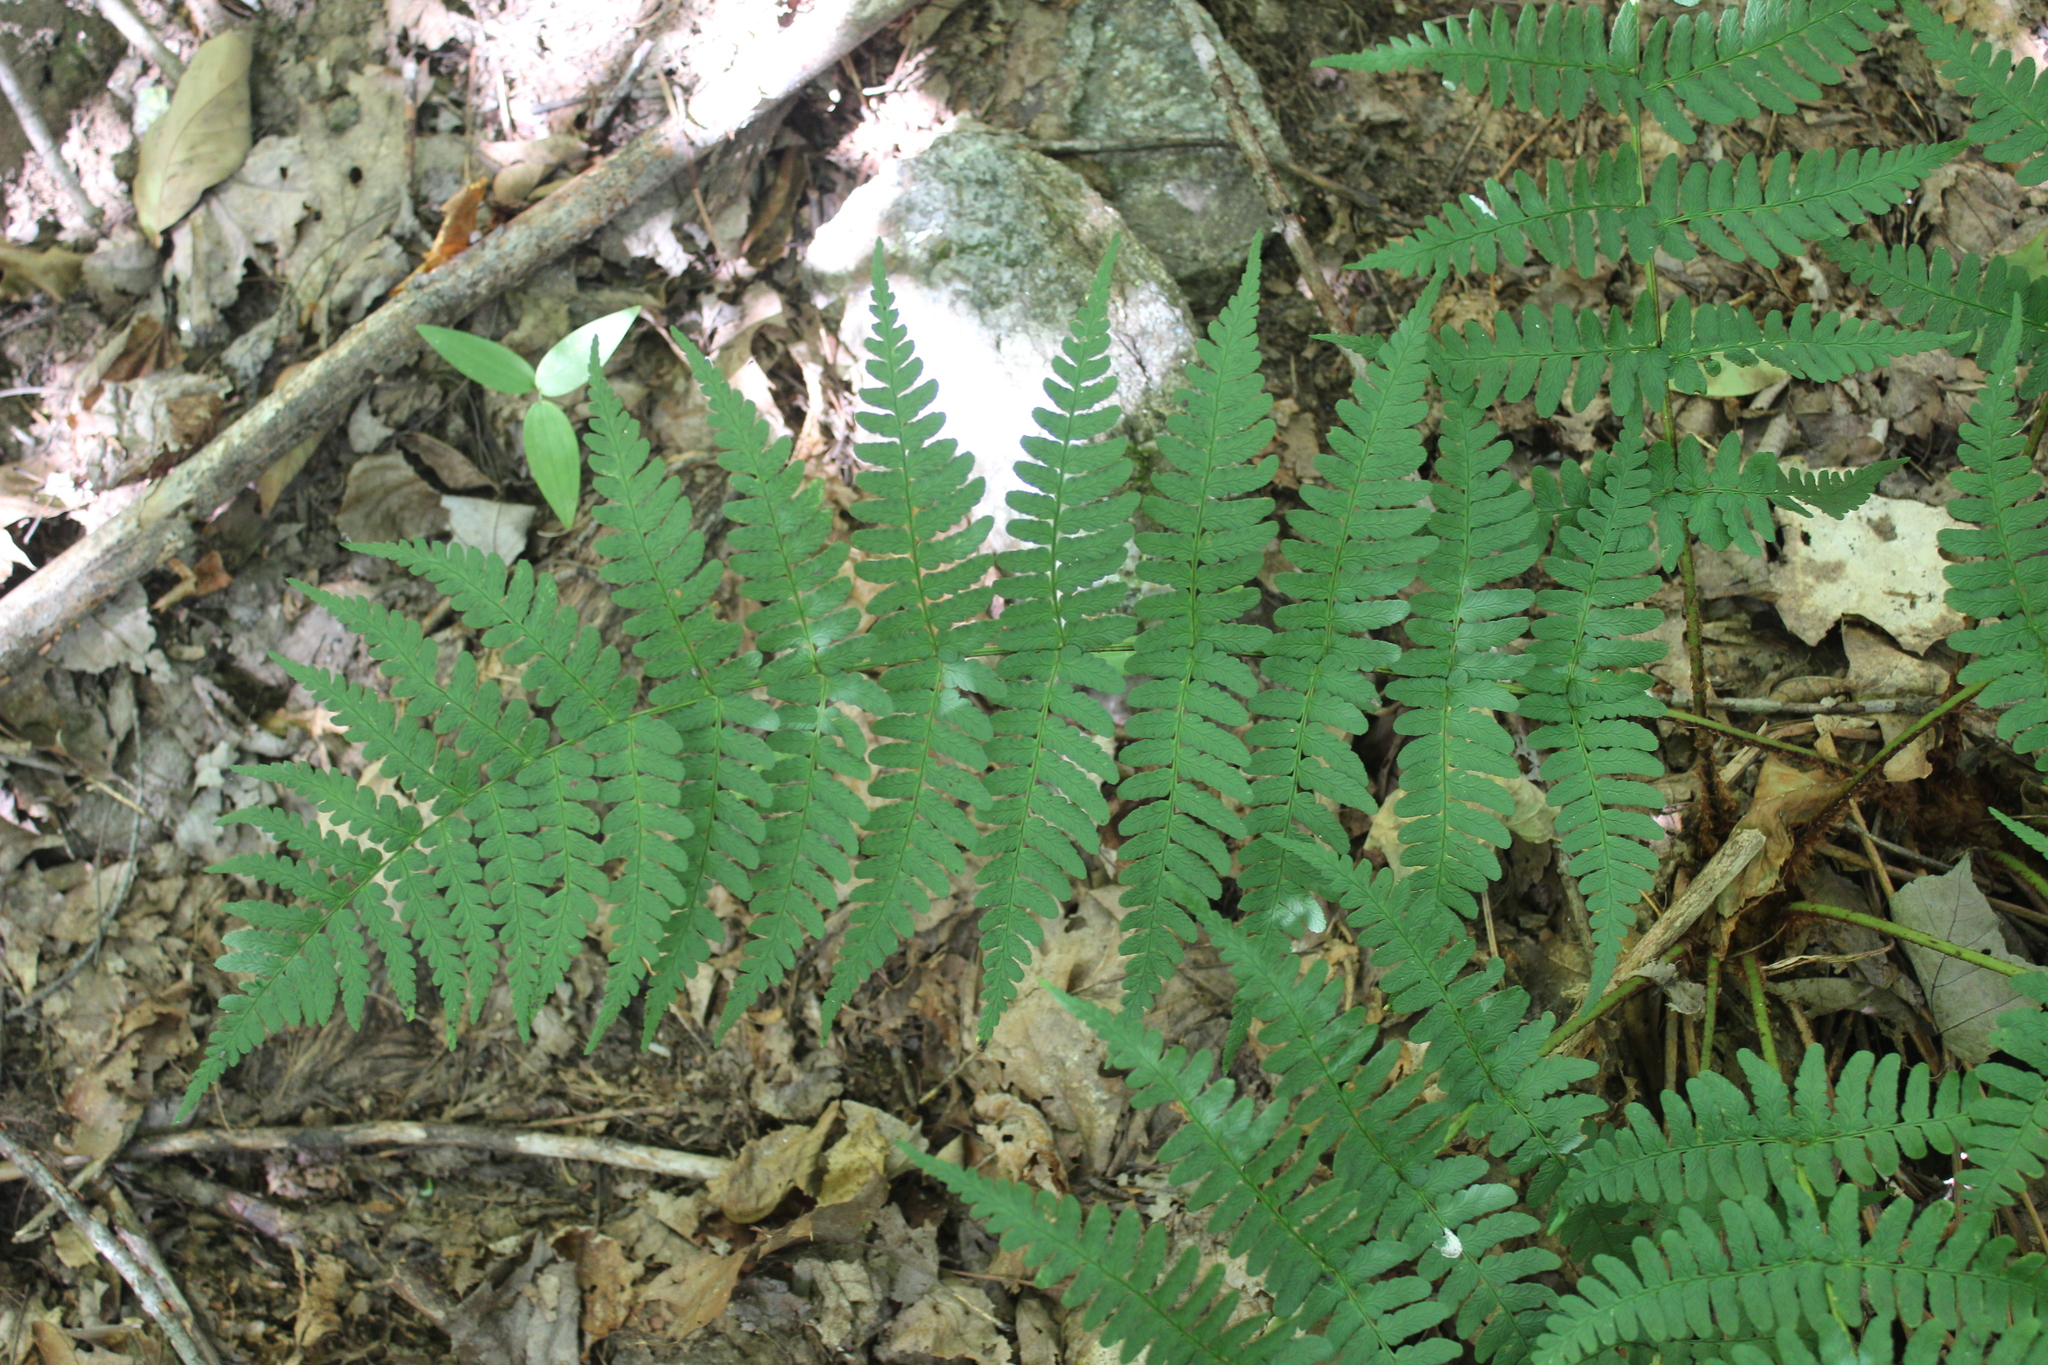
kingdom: Plantae
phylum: Tracheophyta
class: Polypodiopsida
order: Polypodiales
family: Dryopteridaceae
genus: Dryopteris
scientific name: Dryopteris marginalis
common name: Marginal wood fern
